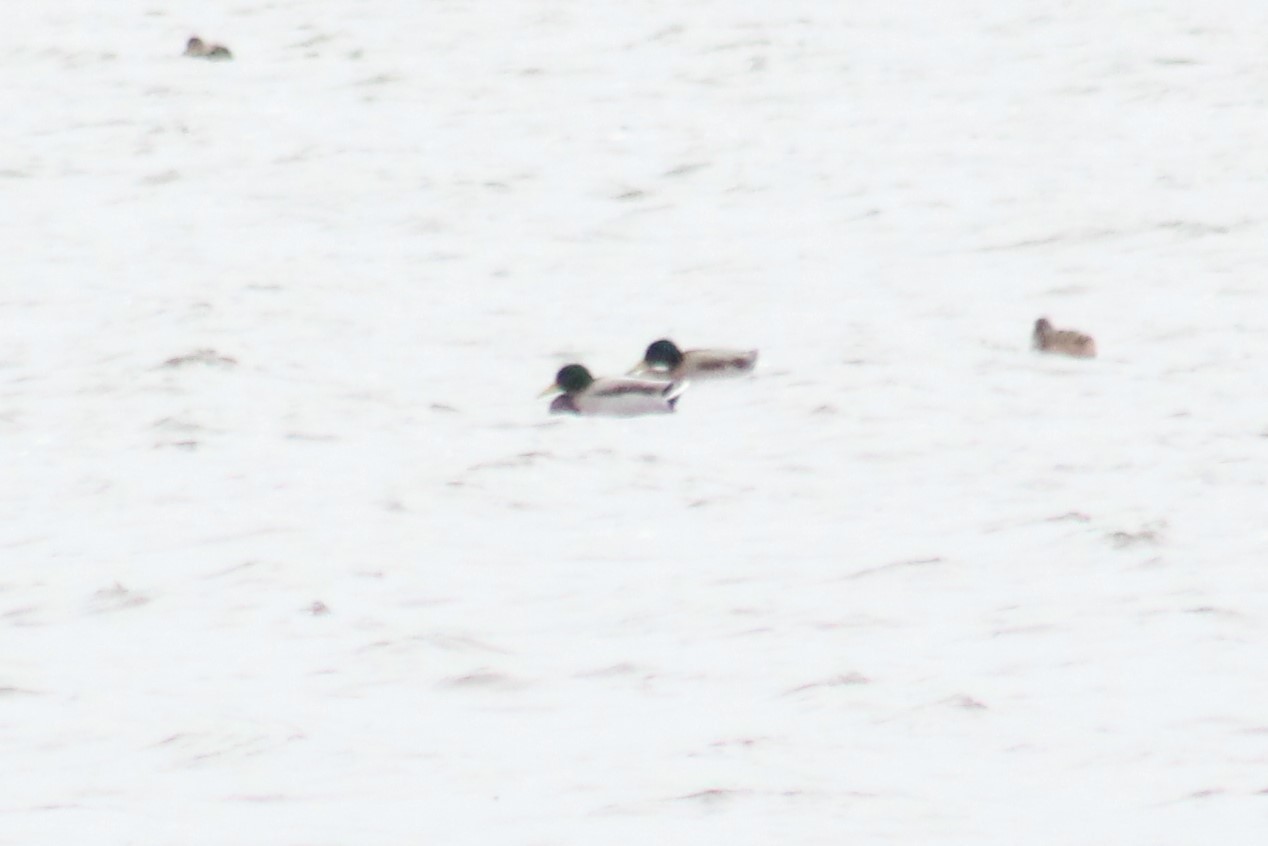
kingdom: Animalia
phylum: Chordata
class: Aves
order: Anseriformes
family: Anatidae
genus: Anas
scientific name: Anas platyrhynchos
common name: Mallard
